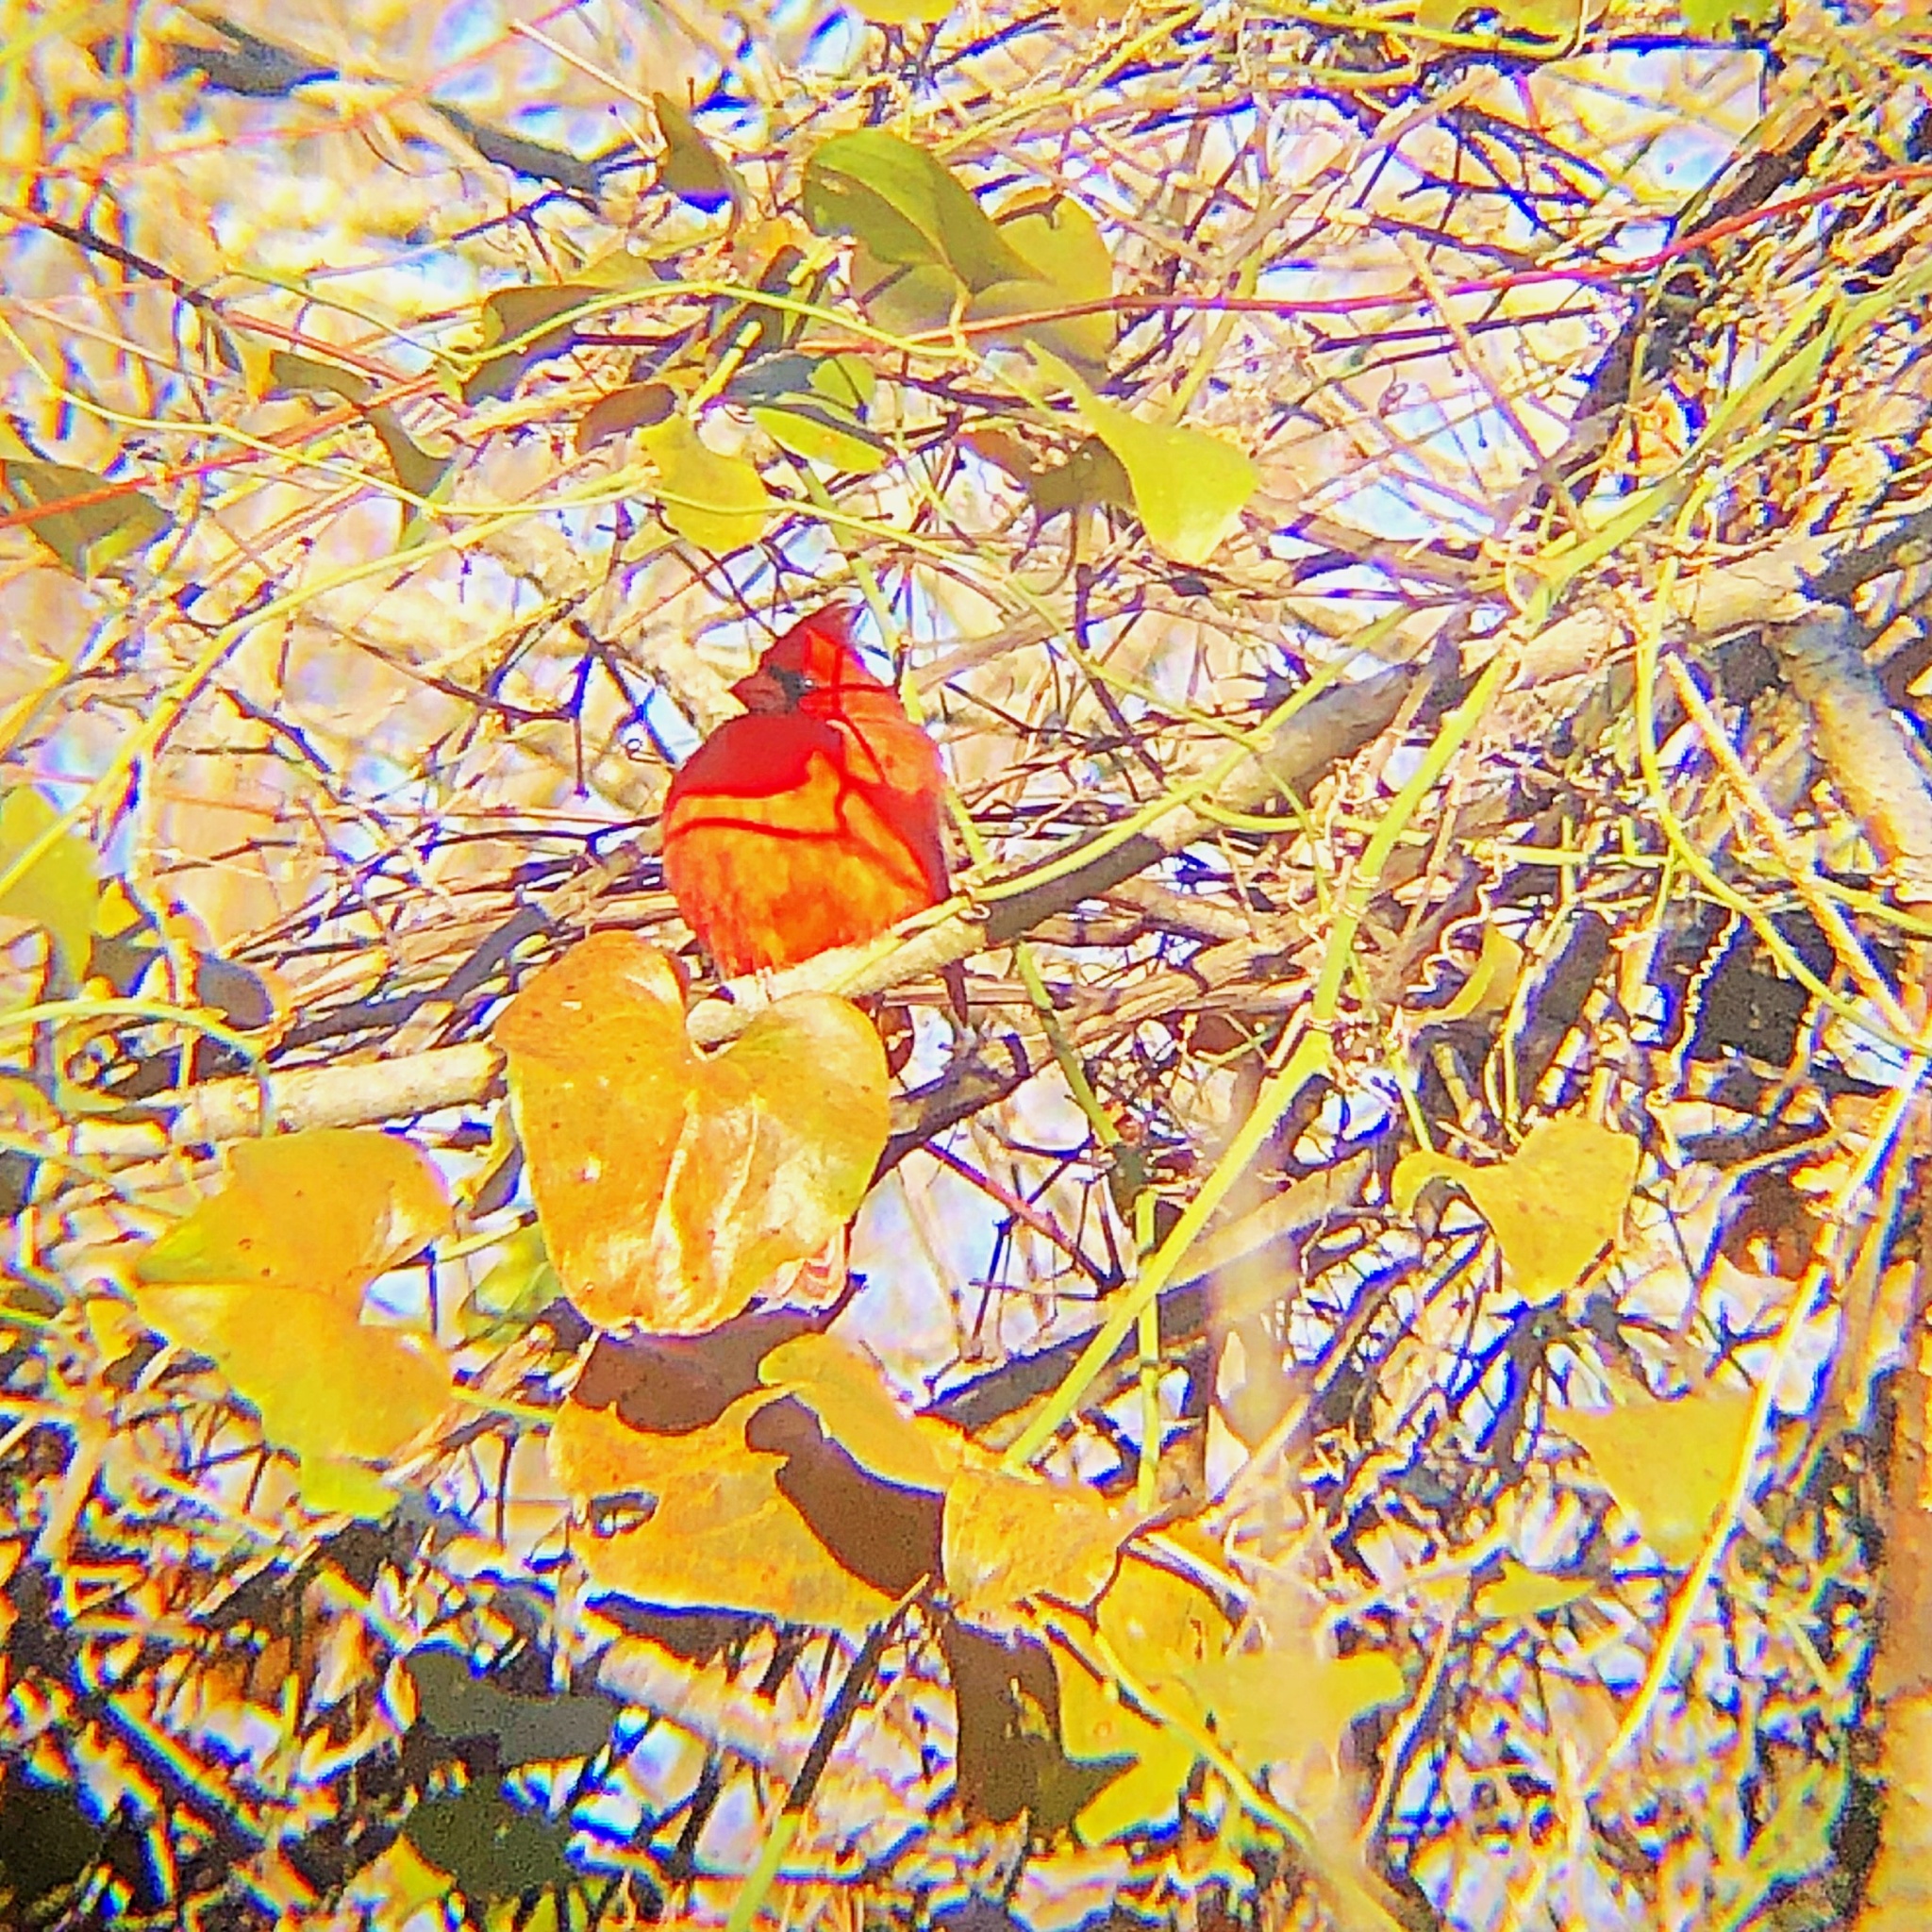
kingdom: Animalia
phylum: Chordata
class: Aves
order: Passeriformes
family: Cardinalidae
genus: Cardinalis
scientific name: Cardinalis cardinalis
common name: Northern cardinal
